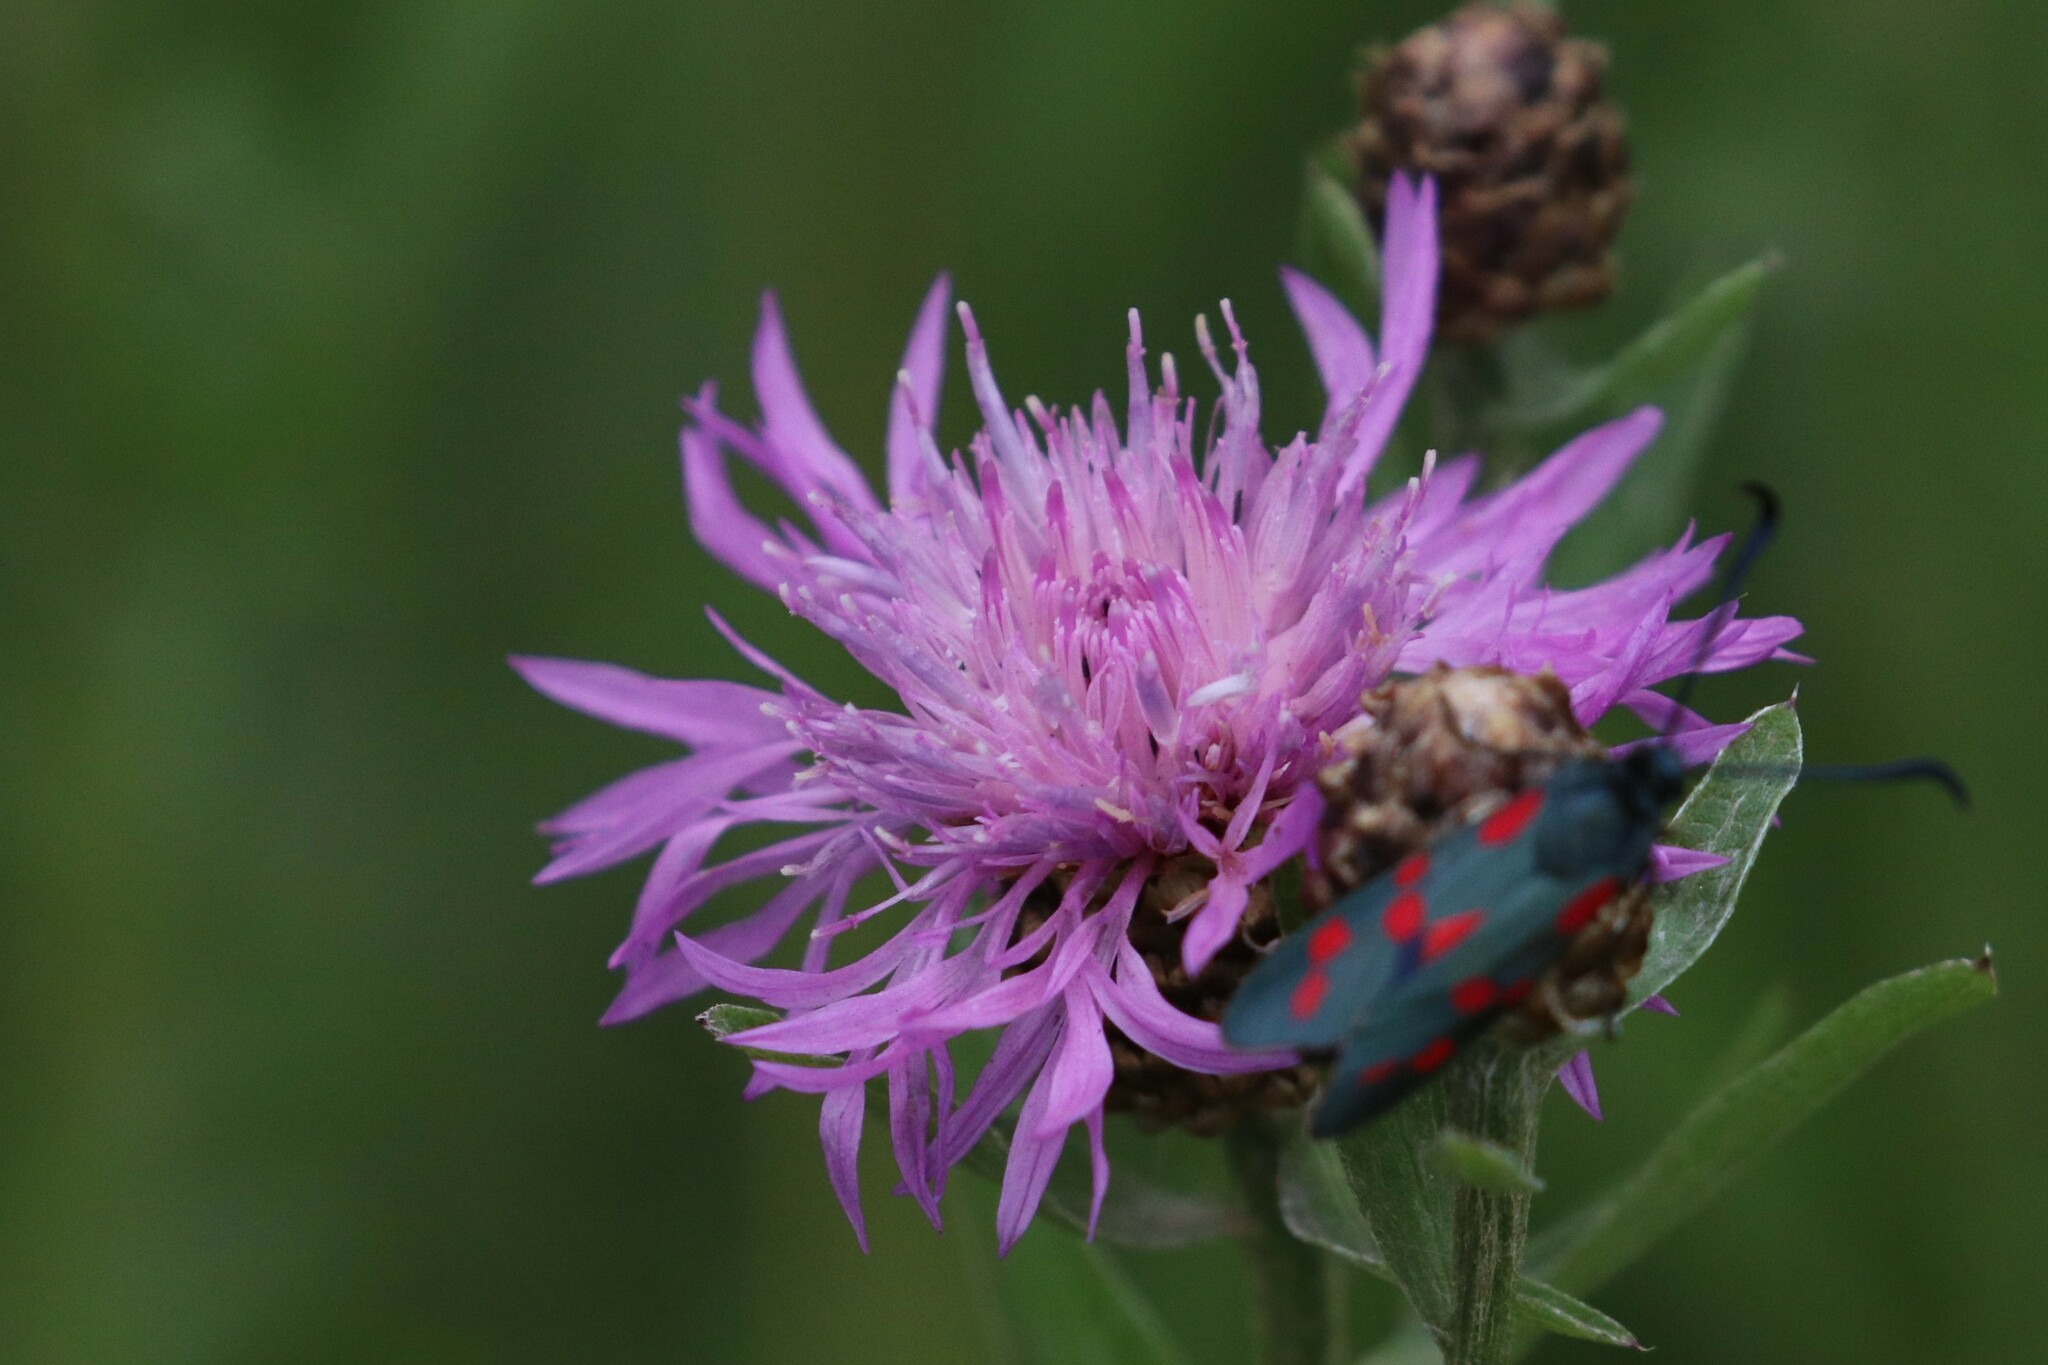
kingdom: Plantae
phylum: Tracheophyta
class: Magnoliopsida
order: Asterales
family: Asteraceae
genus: Centaurea
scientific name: Centaurea jacea
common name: Brown knapweed
